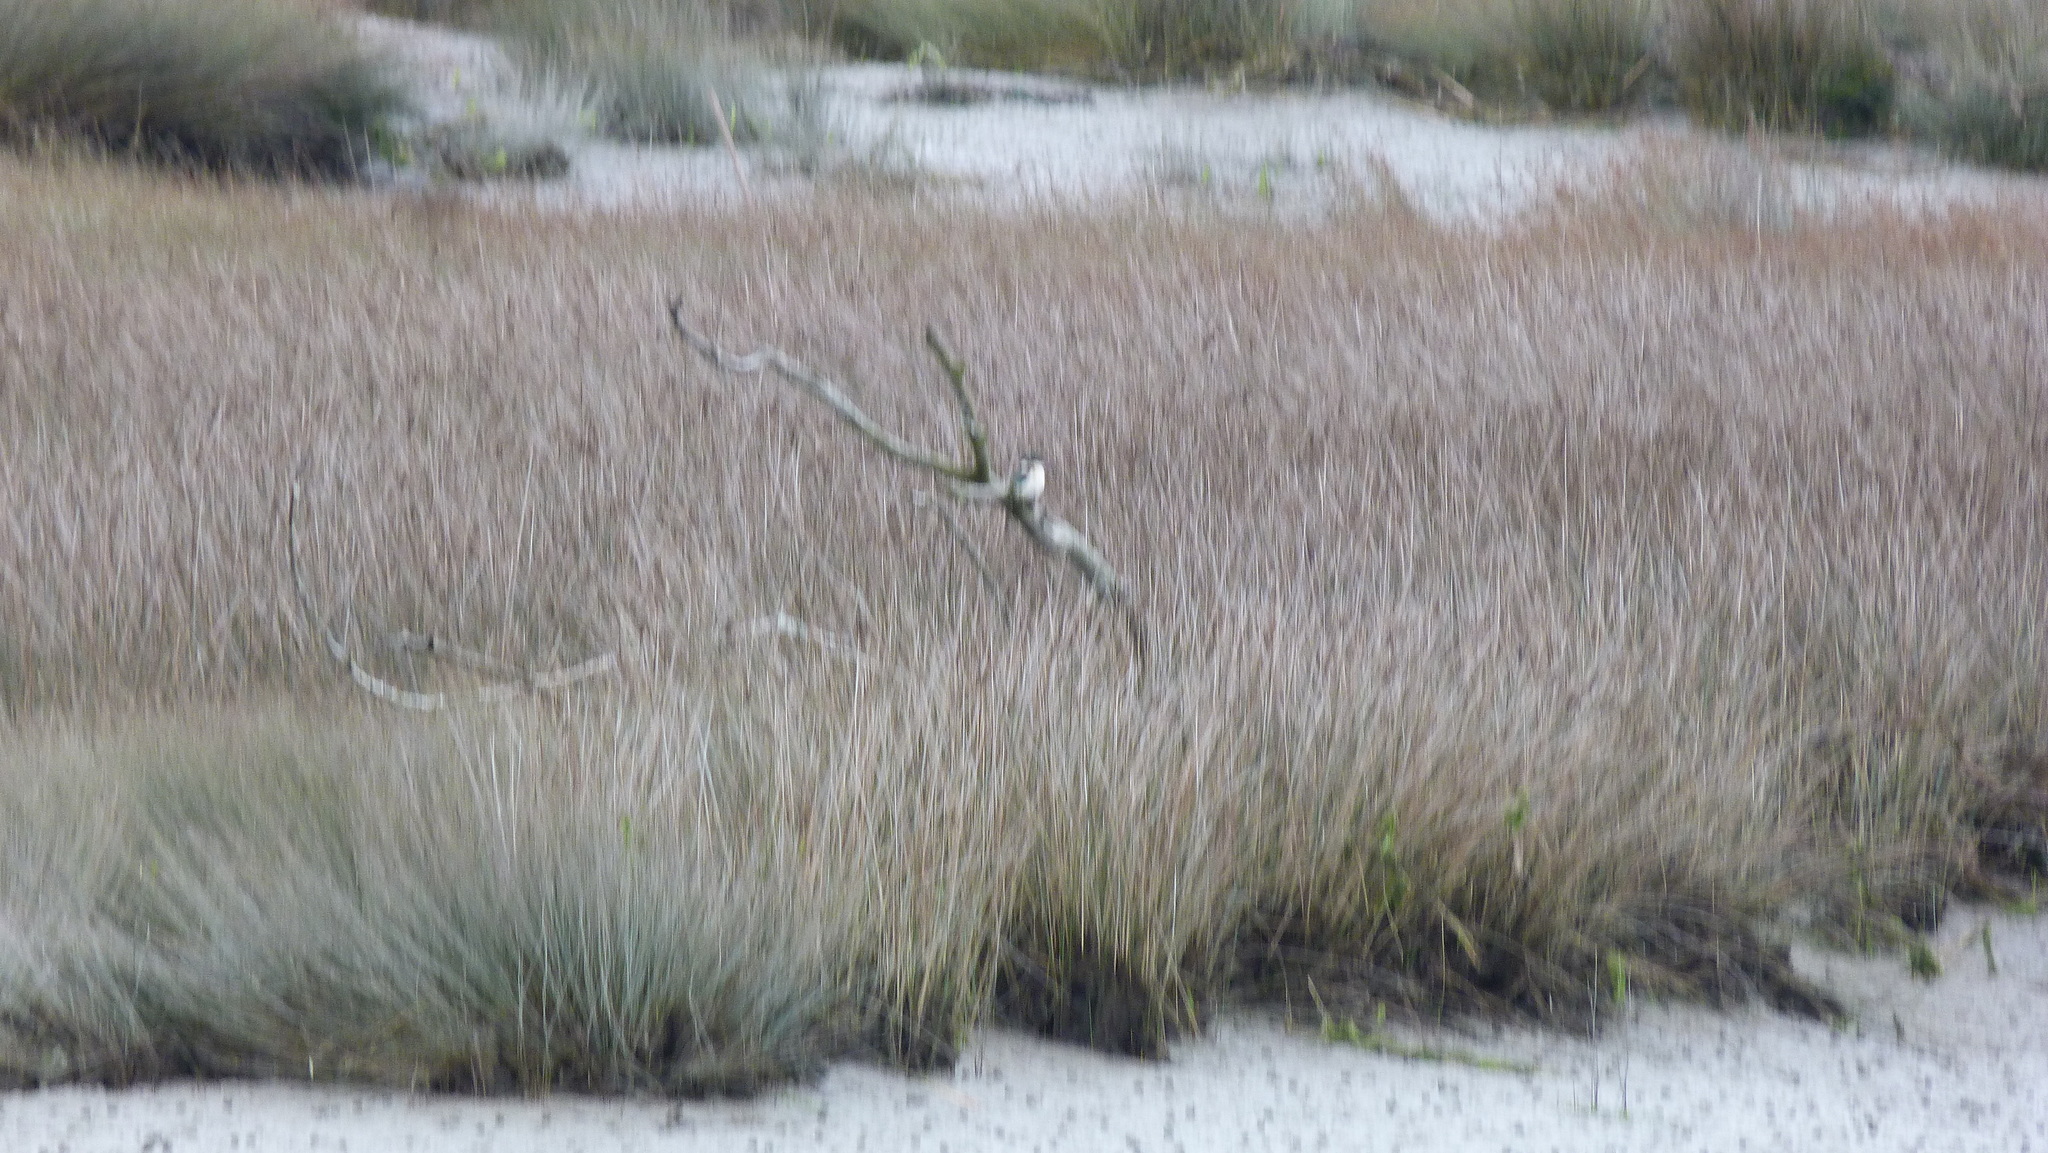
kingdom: Animalia
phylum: Chordata
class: Aves
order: Coraciiformes
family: Alcedinidae
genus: Todiramphus
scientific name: Todiramphus sanctus
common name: Sacred kingfisher
